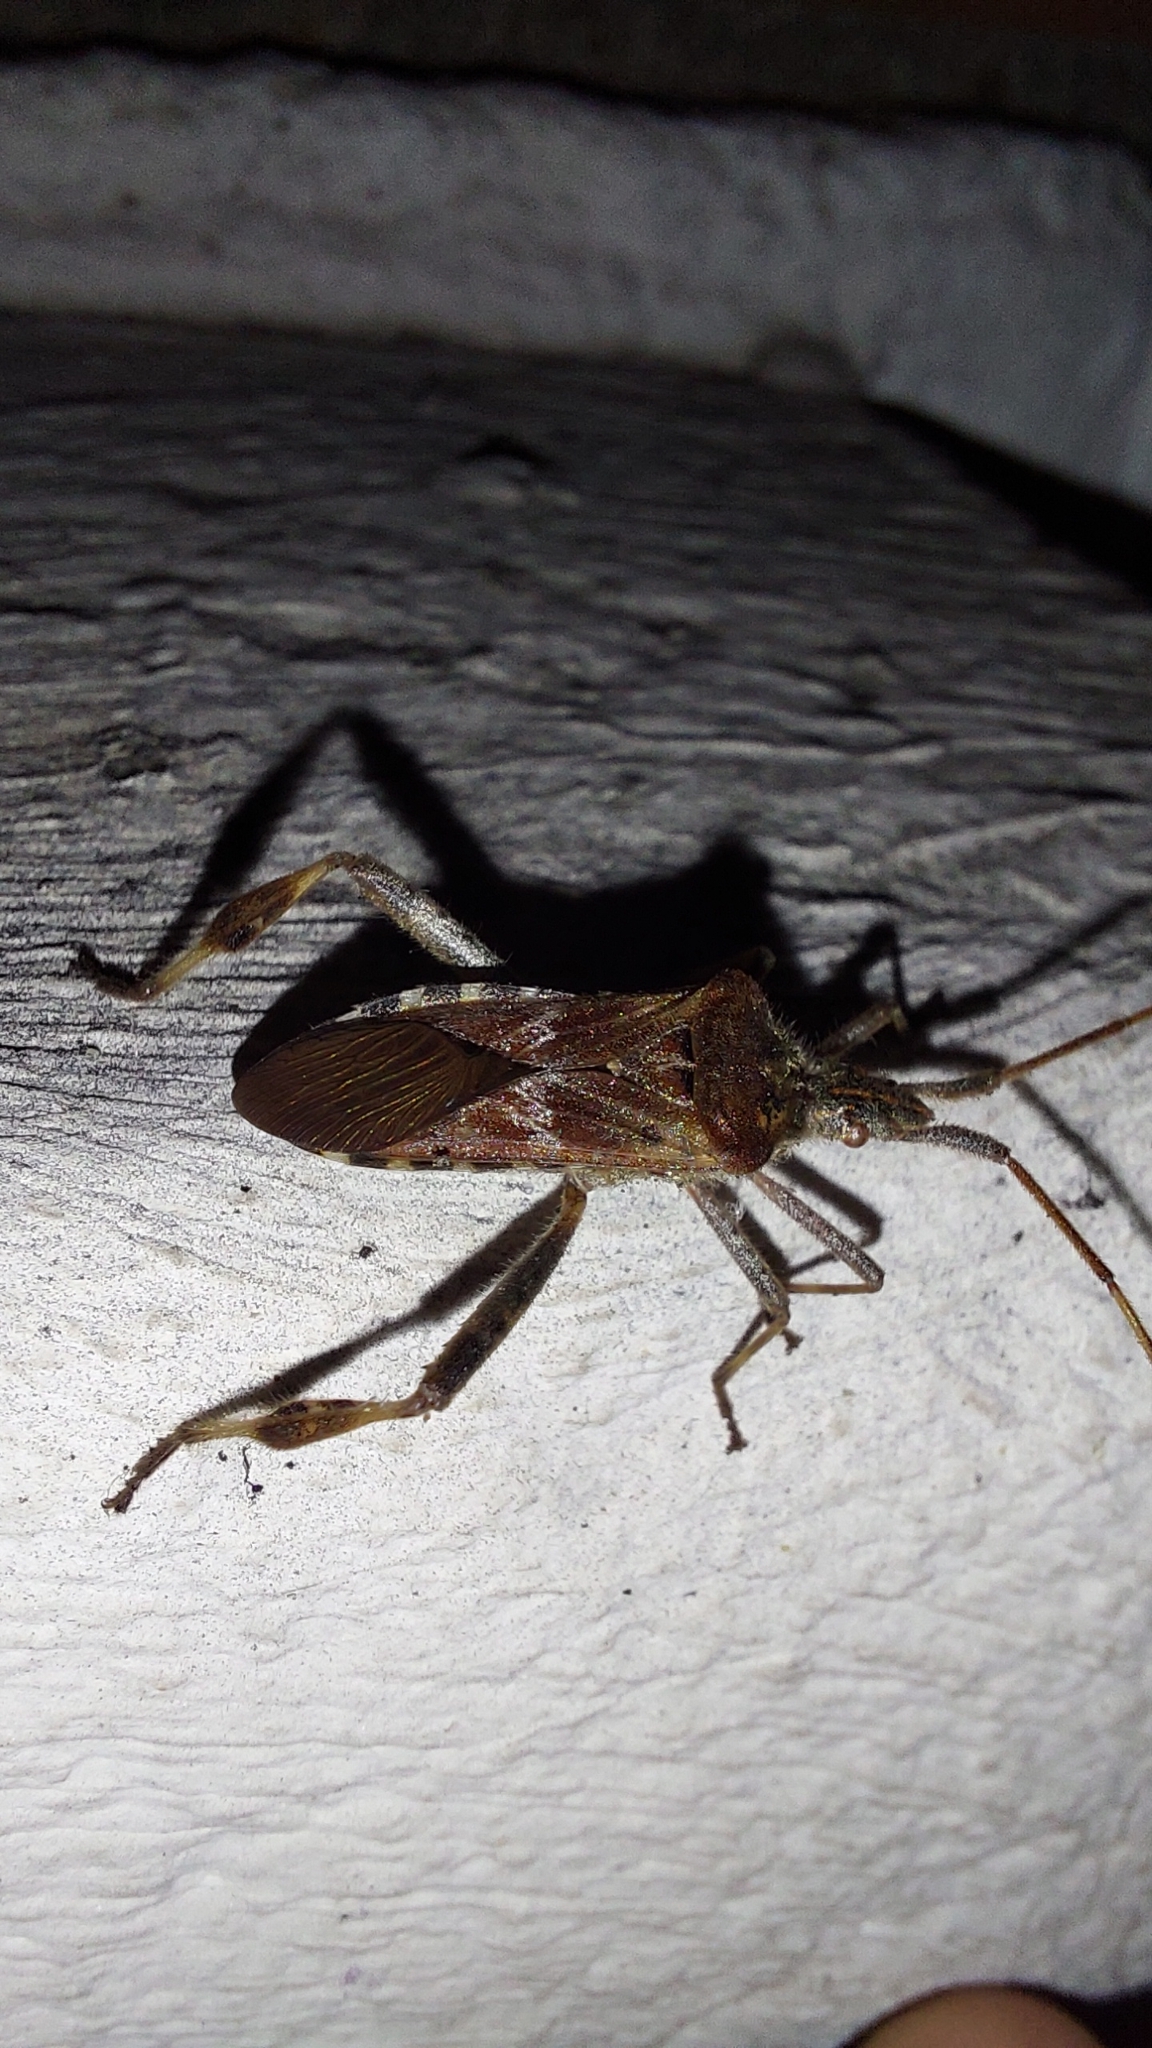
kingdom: Animalia
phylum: Arthropoda
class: Insecta
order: Hemiptera
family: Coreidae
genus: Leptoglossus
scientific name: Leptoglossus occidentalis
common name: Western conifer-seed bug
